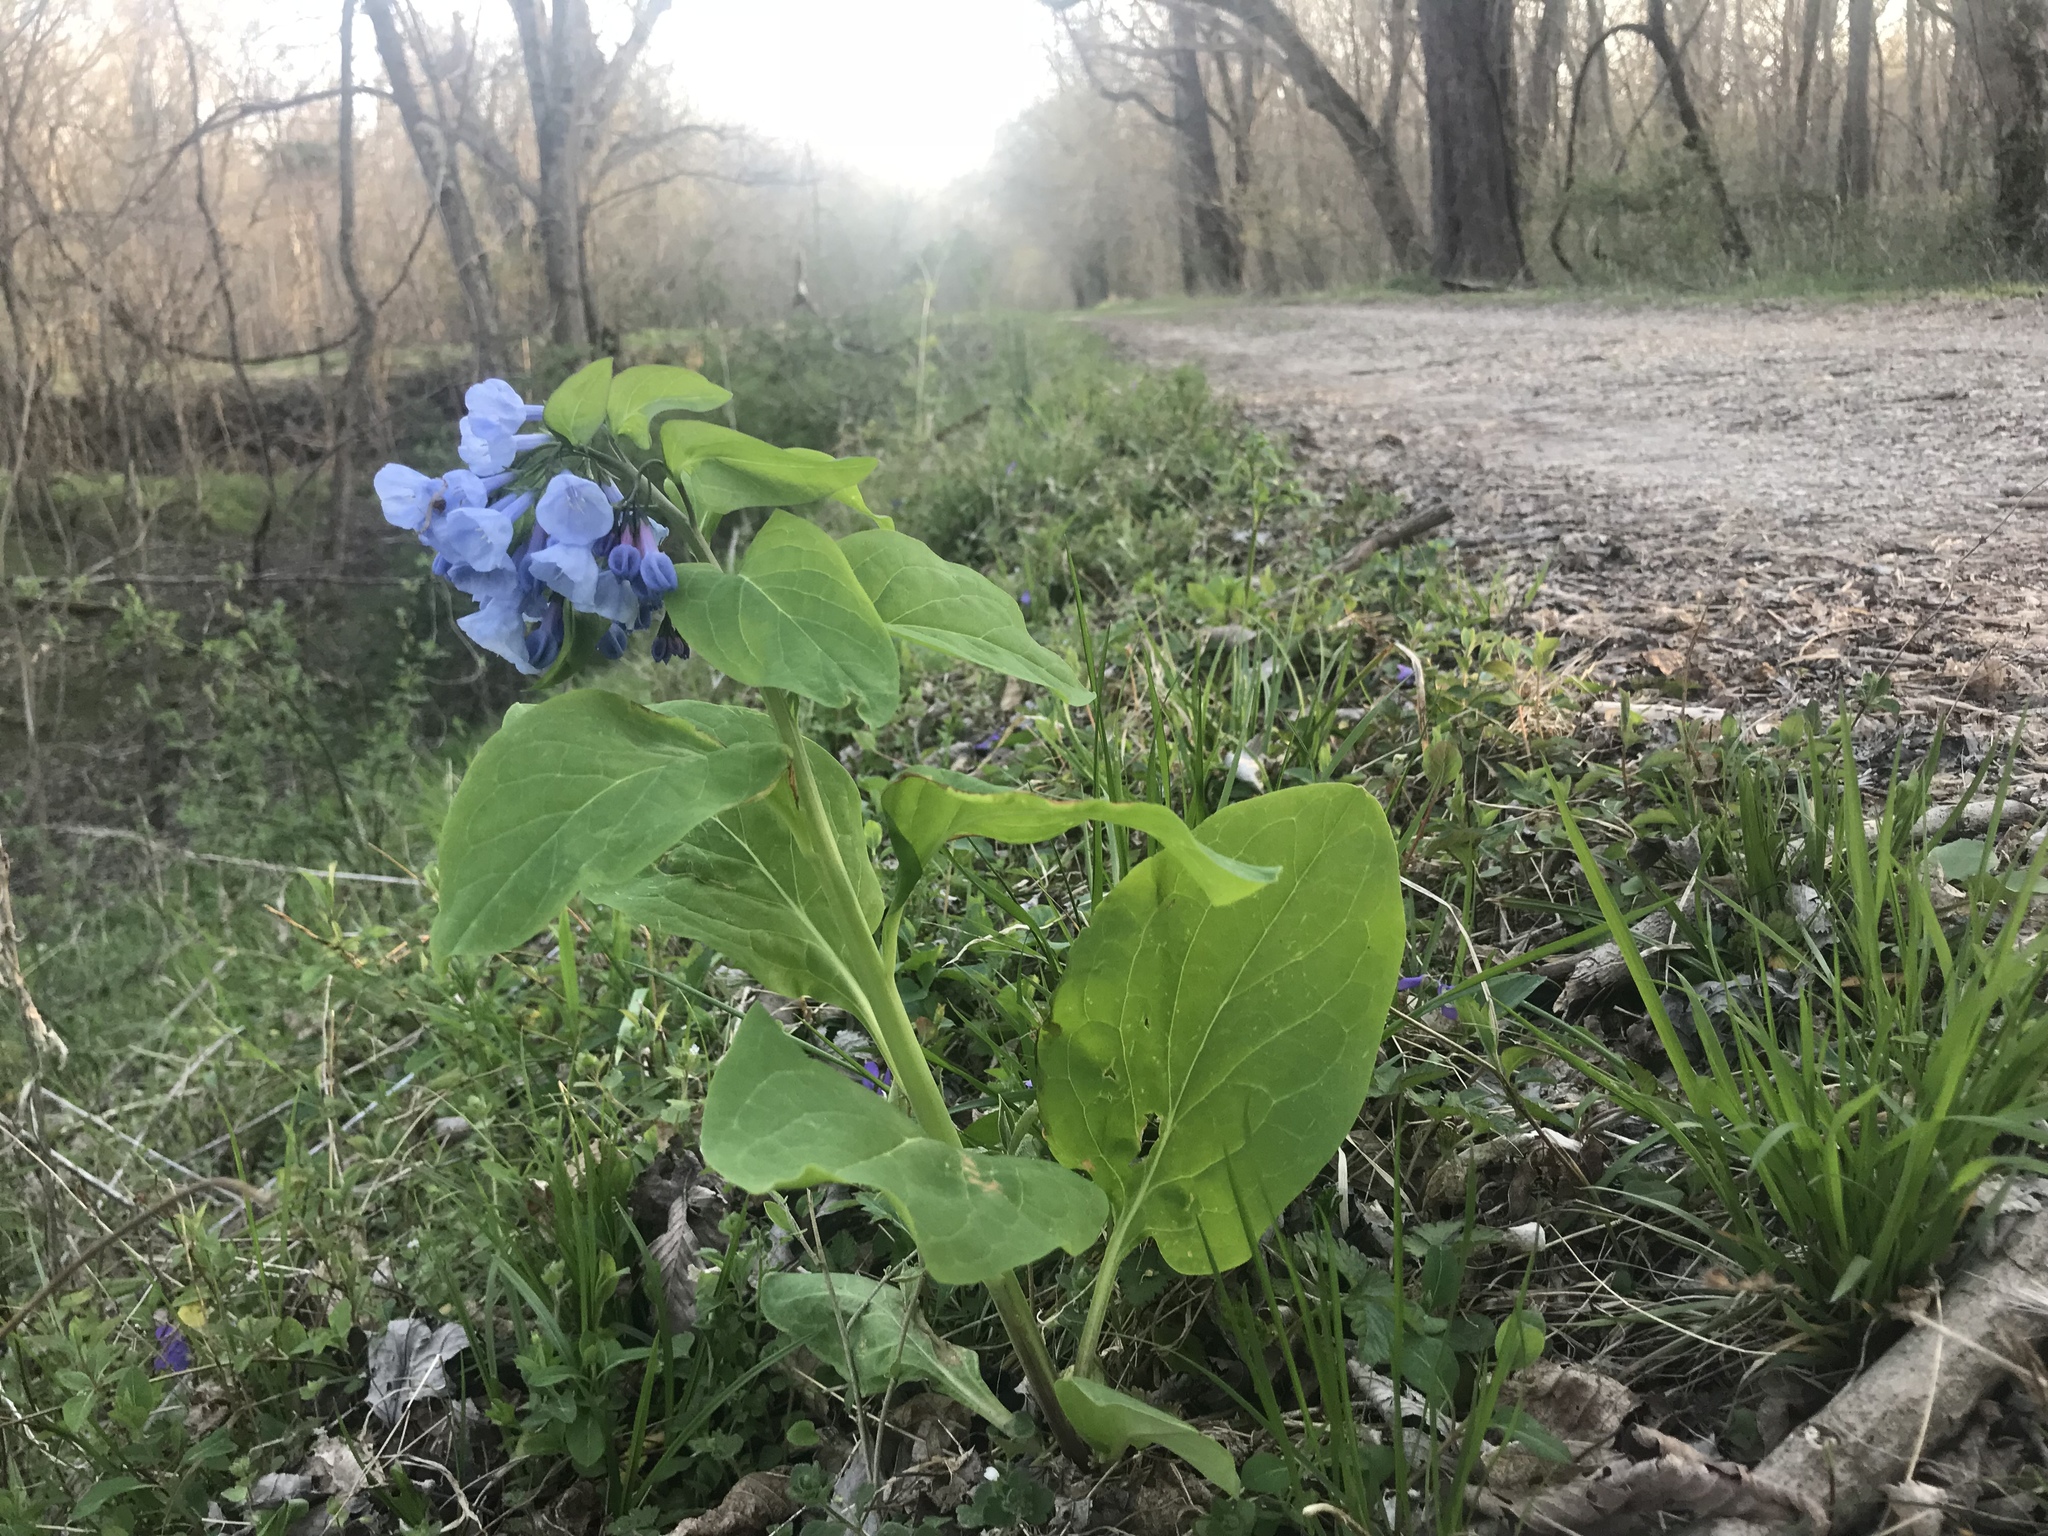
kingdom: Plantae
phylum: Tracheophyta
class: Magnoliopsida
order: Boraginales
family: Boraginaceae
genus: Mertensia
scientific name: Mertensia virginica
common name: Virginia bluebells
